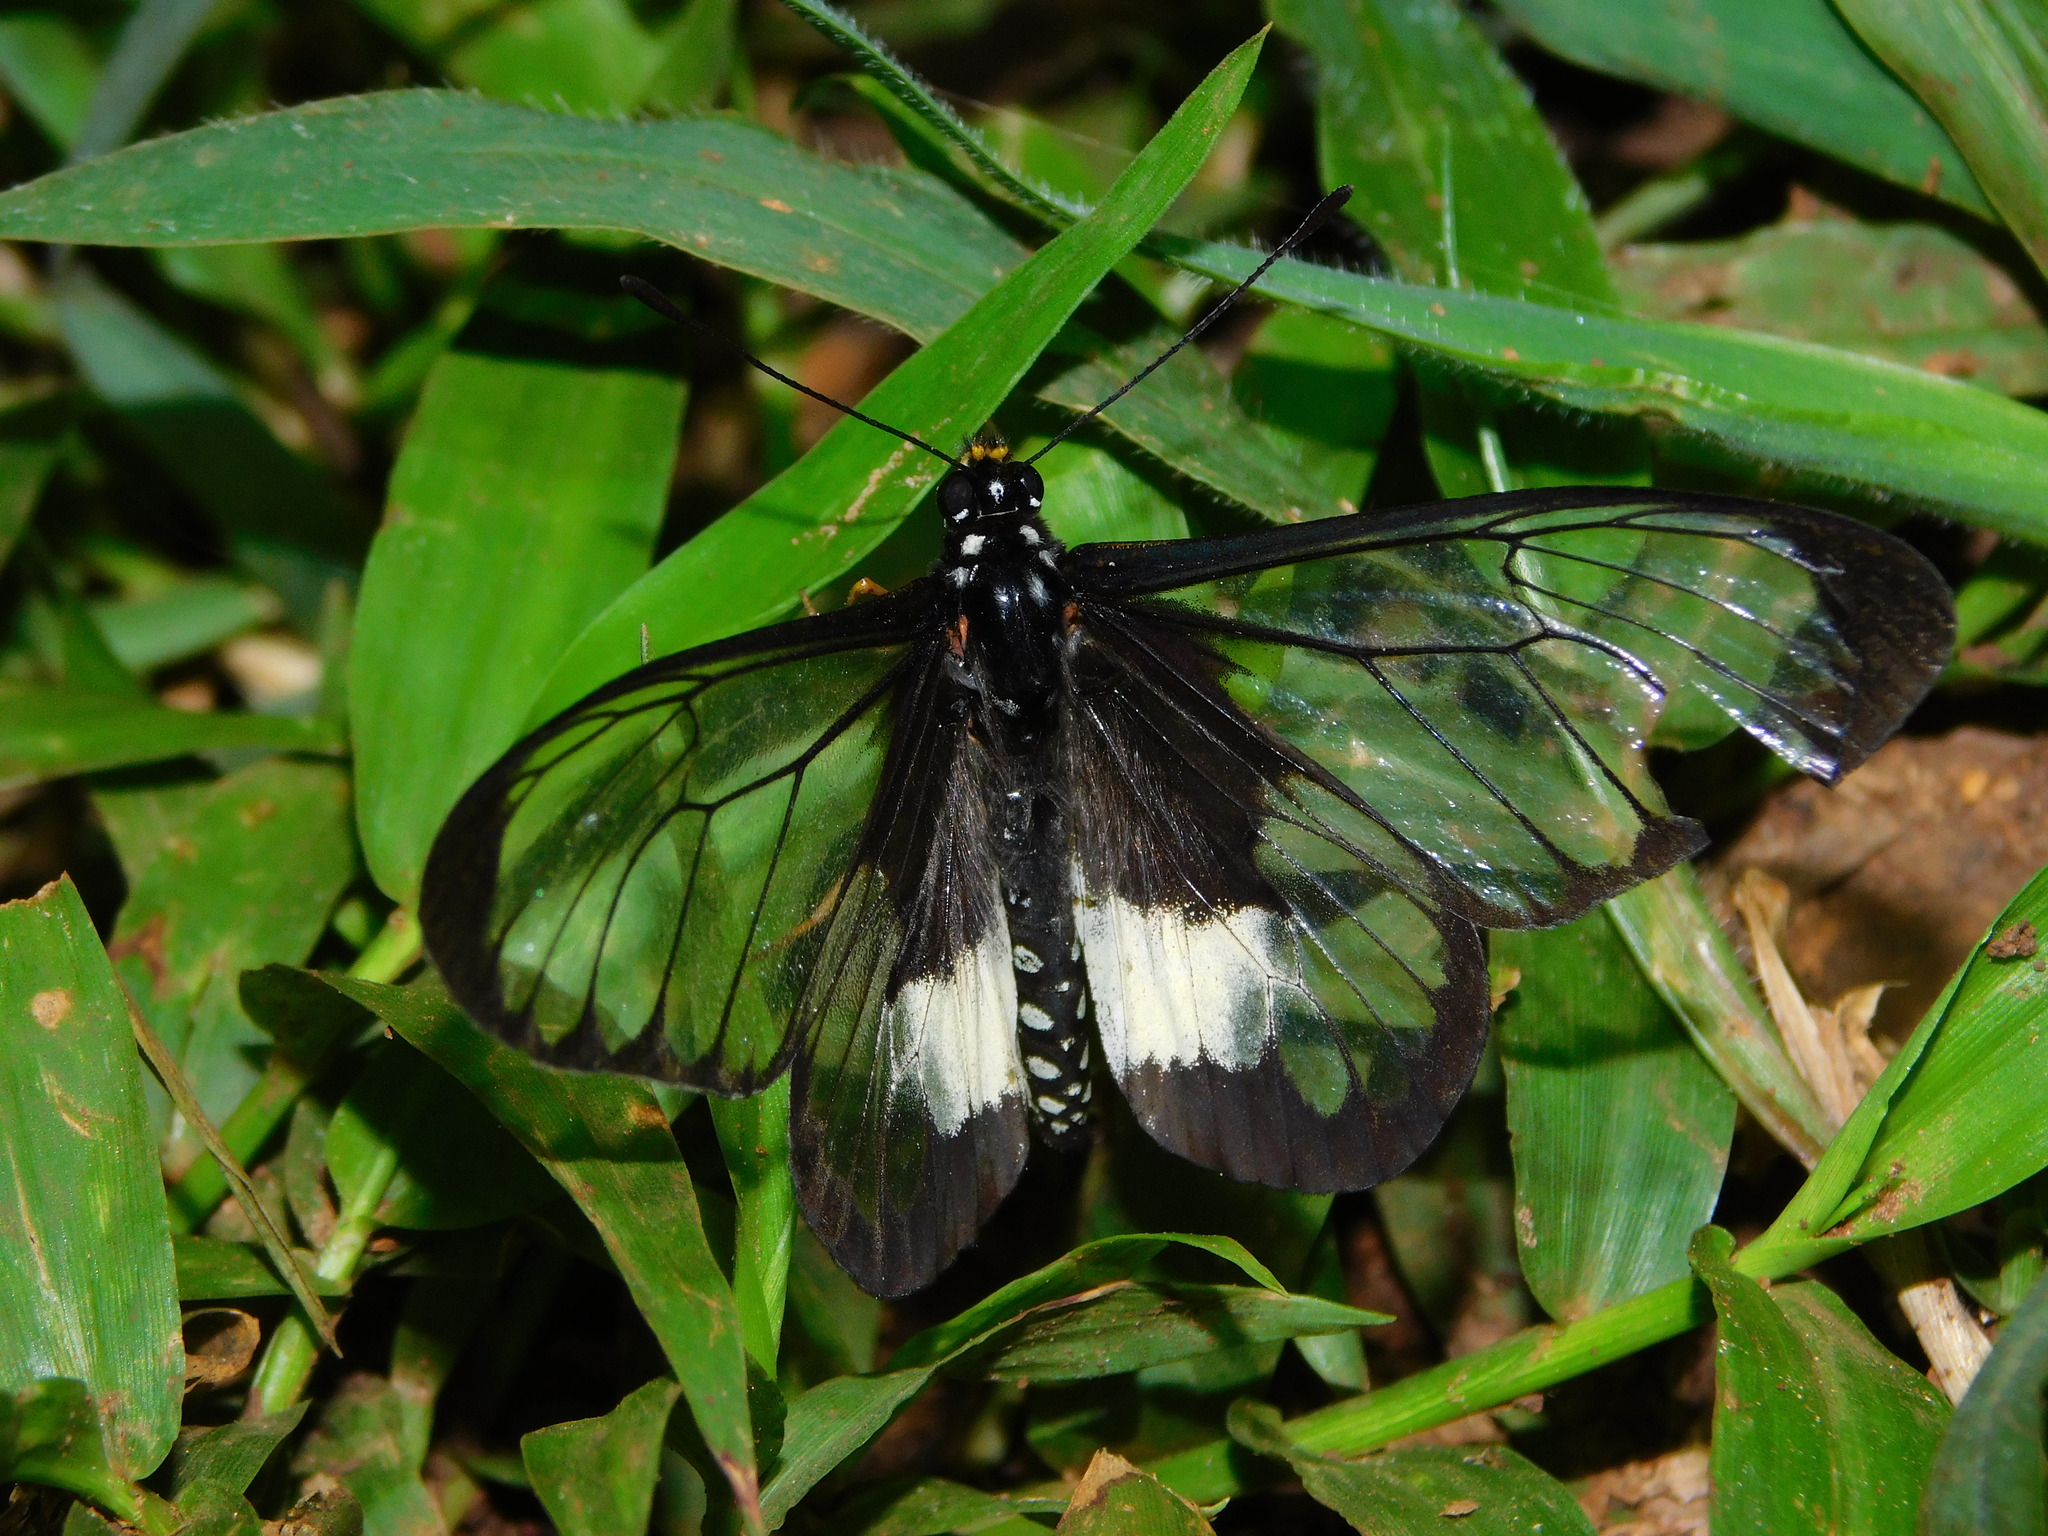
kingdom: Animalia
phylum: Arthropoda
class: Insecta
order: Lepidoptera
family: Nymphalidae
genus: Acraea
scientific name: Acraea
